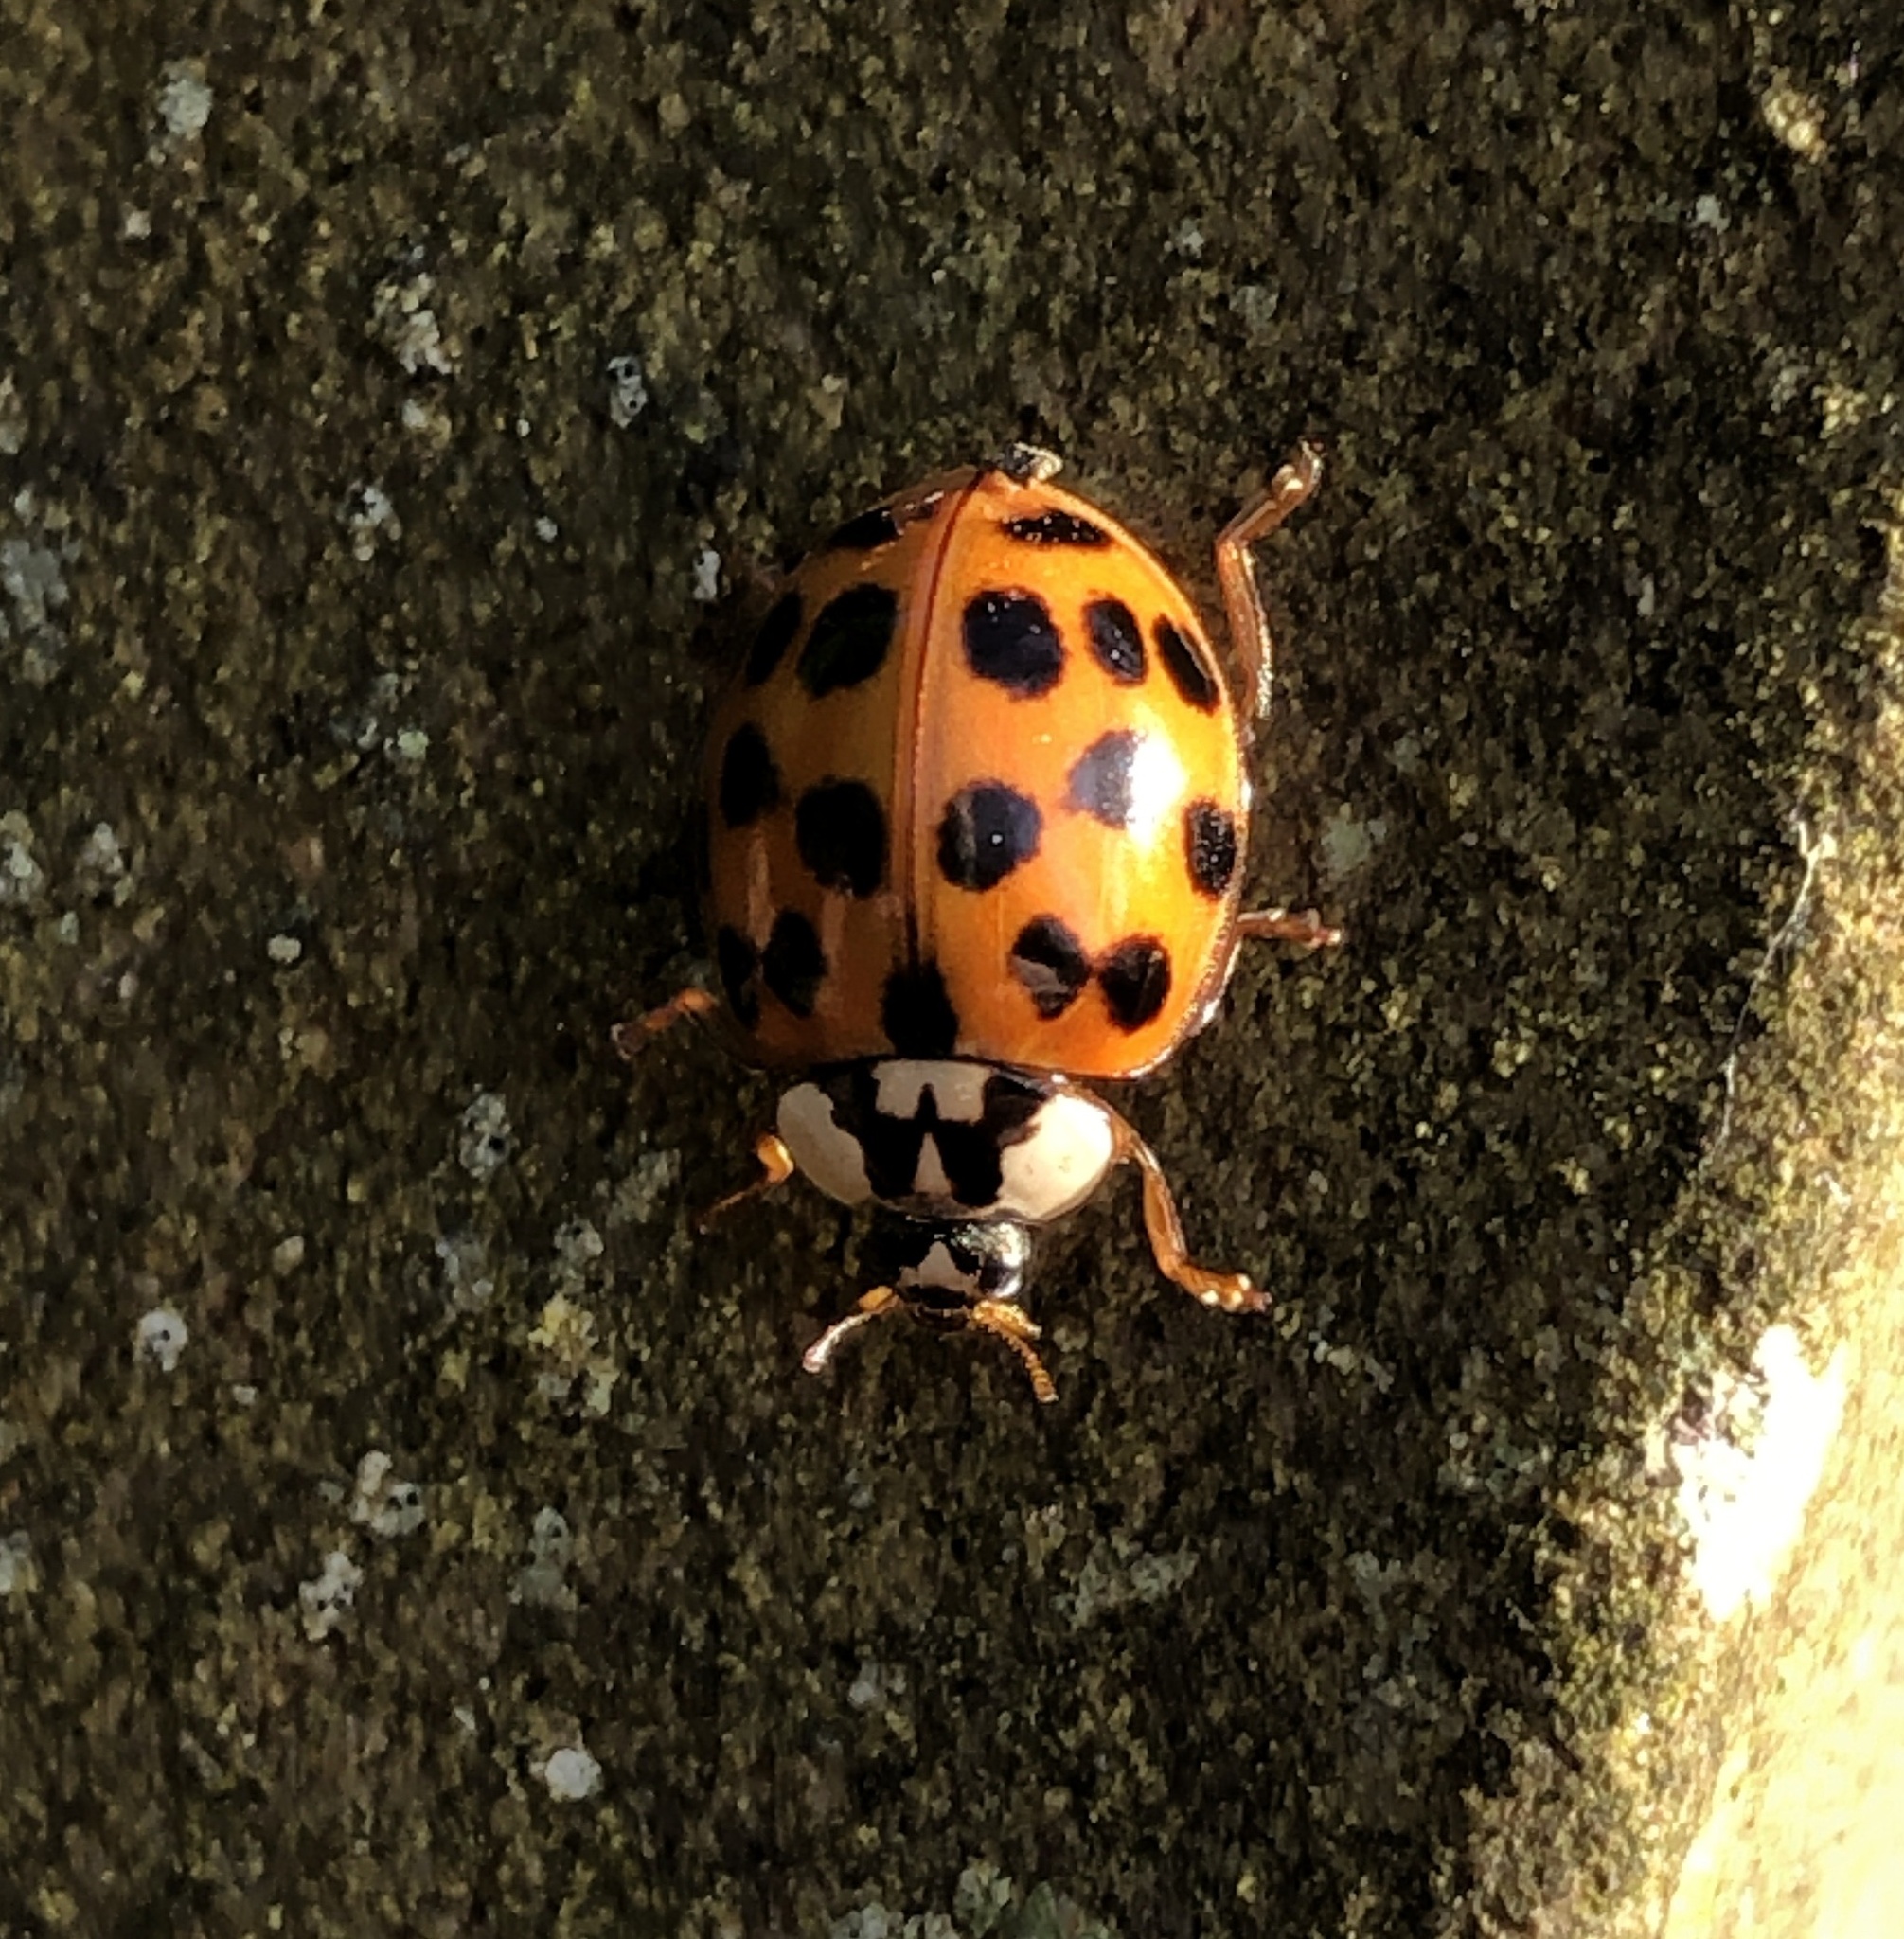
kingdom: Animalia
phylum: Arthropoda
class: Insecta
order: Coleoptera
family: Coccinellidae
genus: Harmonia
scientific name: Harmonia axyridis
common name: Harlequin ladybird
